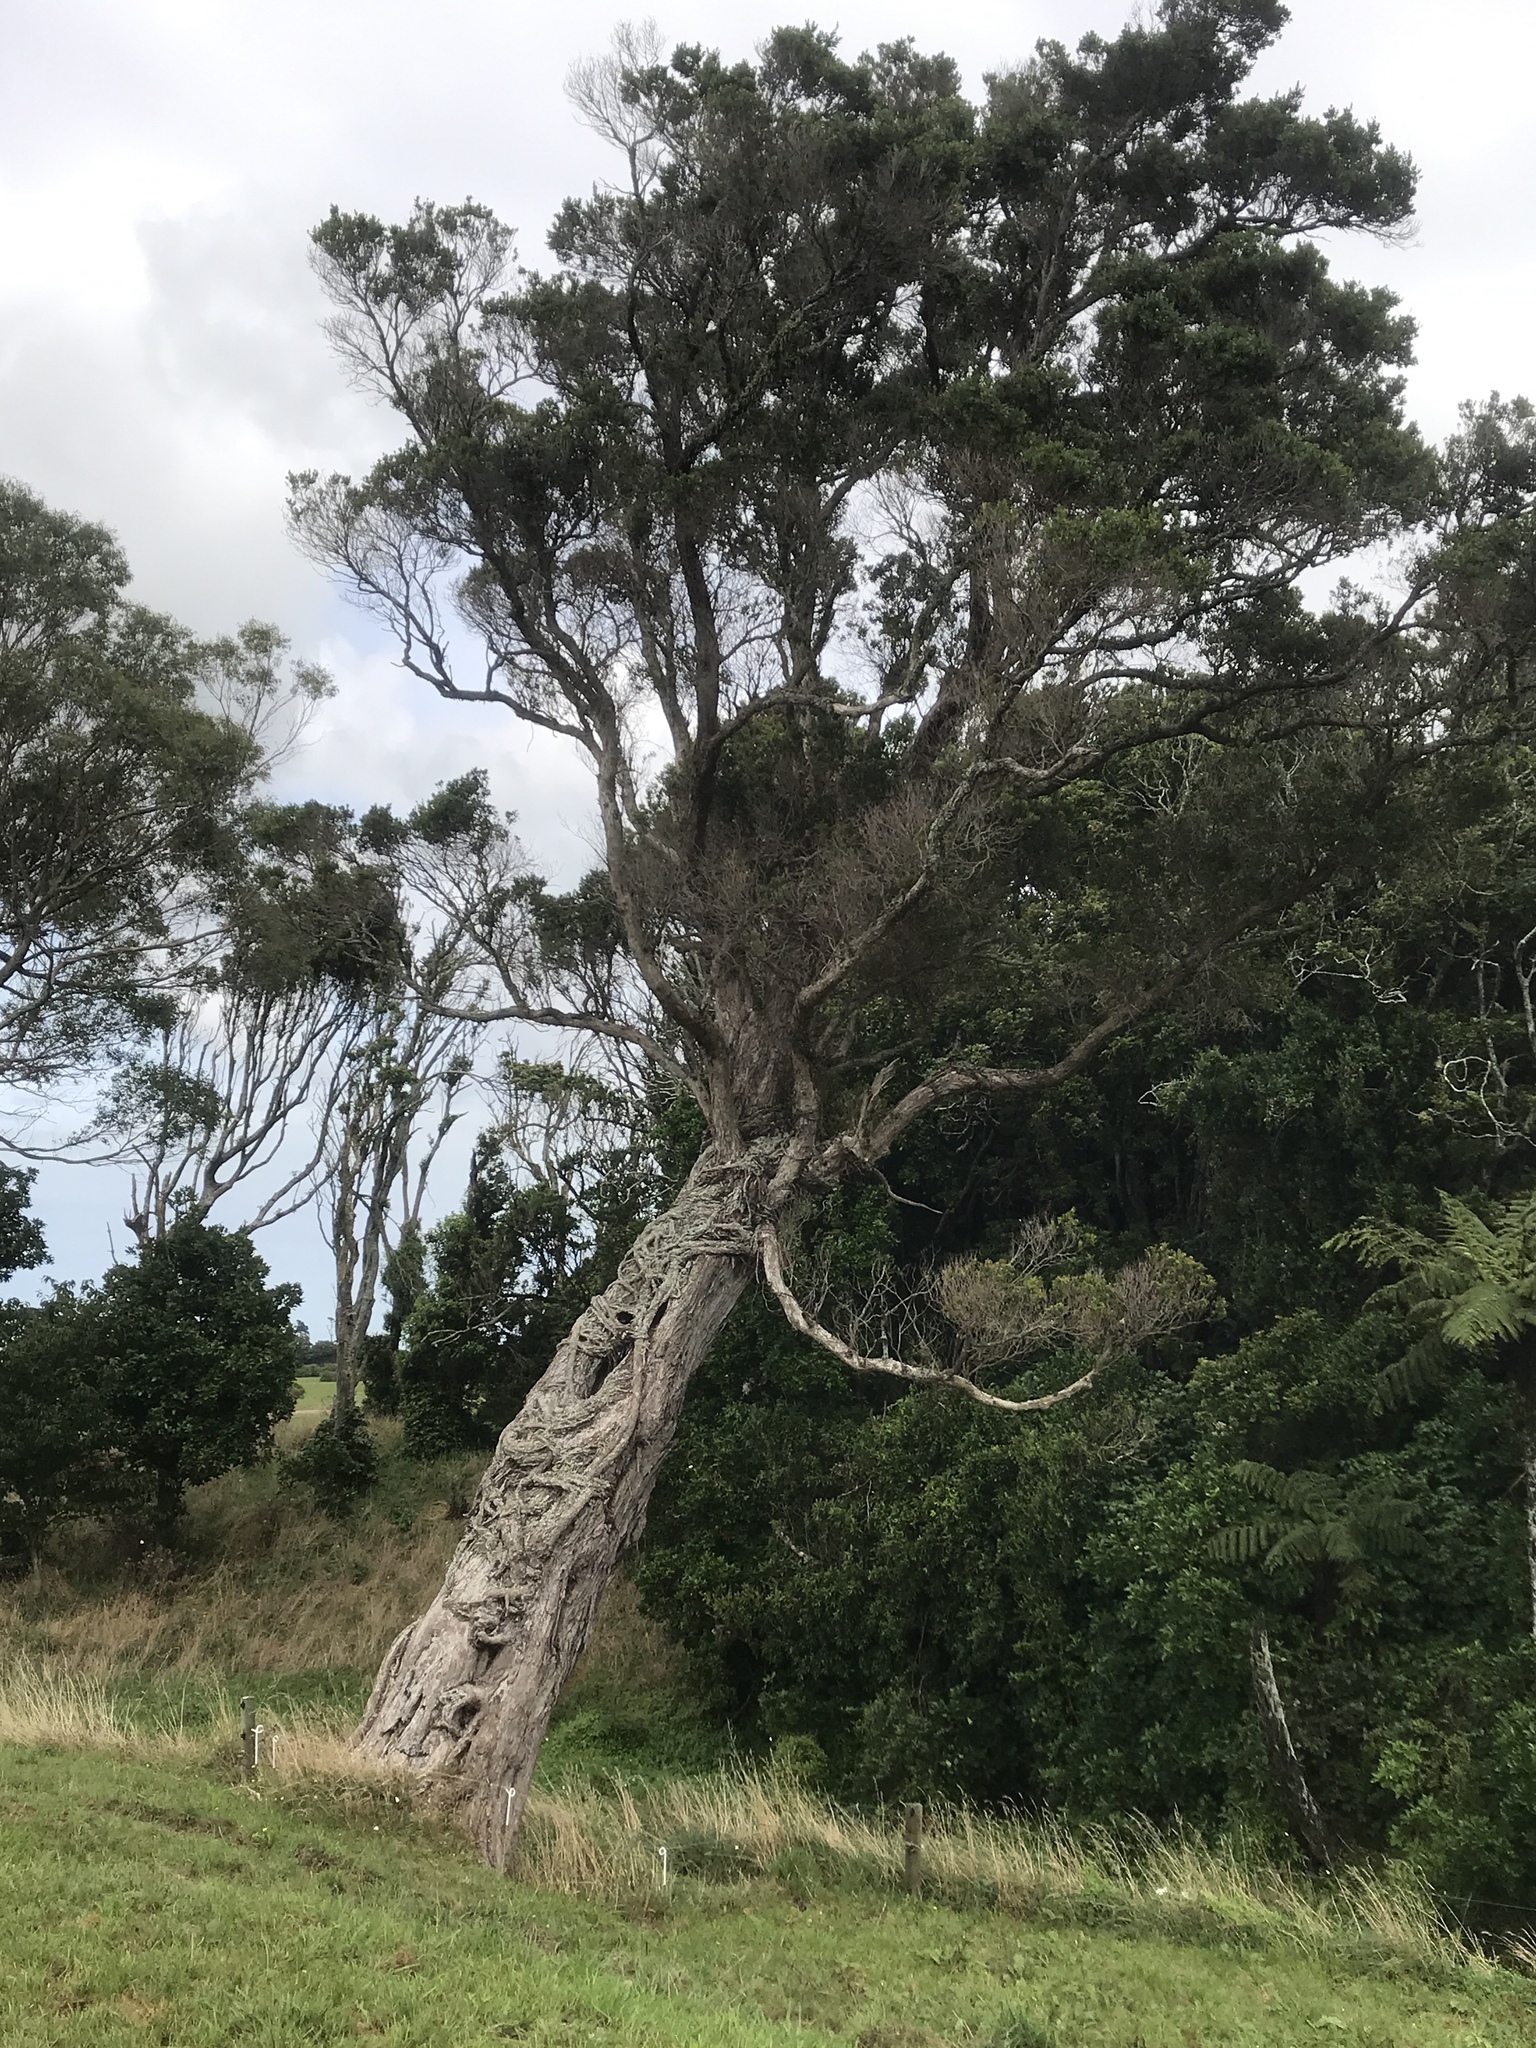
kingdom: Plantae
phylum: Tracheophyta
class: Magnoliopsida
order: Myrtales
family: Myrtaceae
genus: Metrosideros
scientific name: Metrosideros robusta
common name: Northern rata
